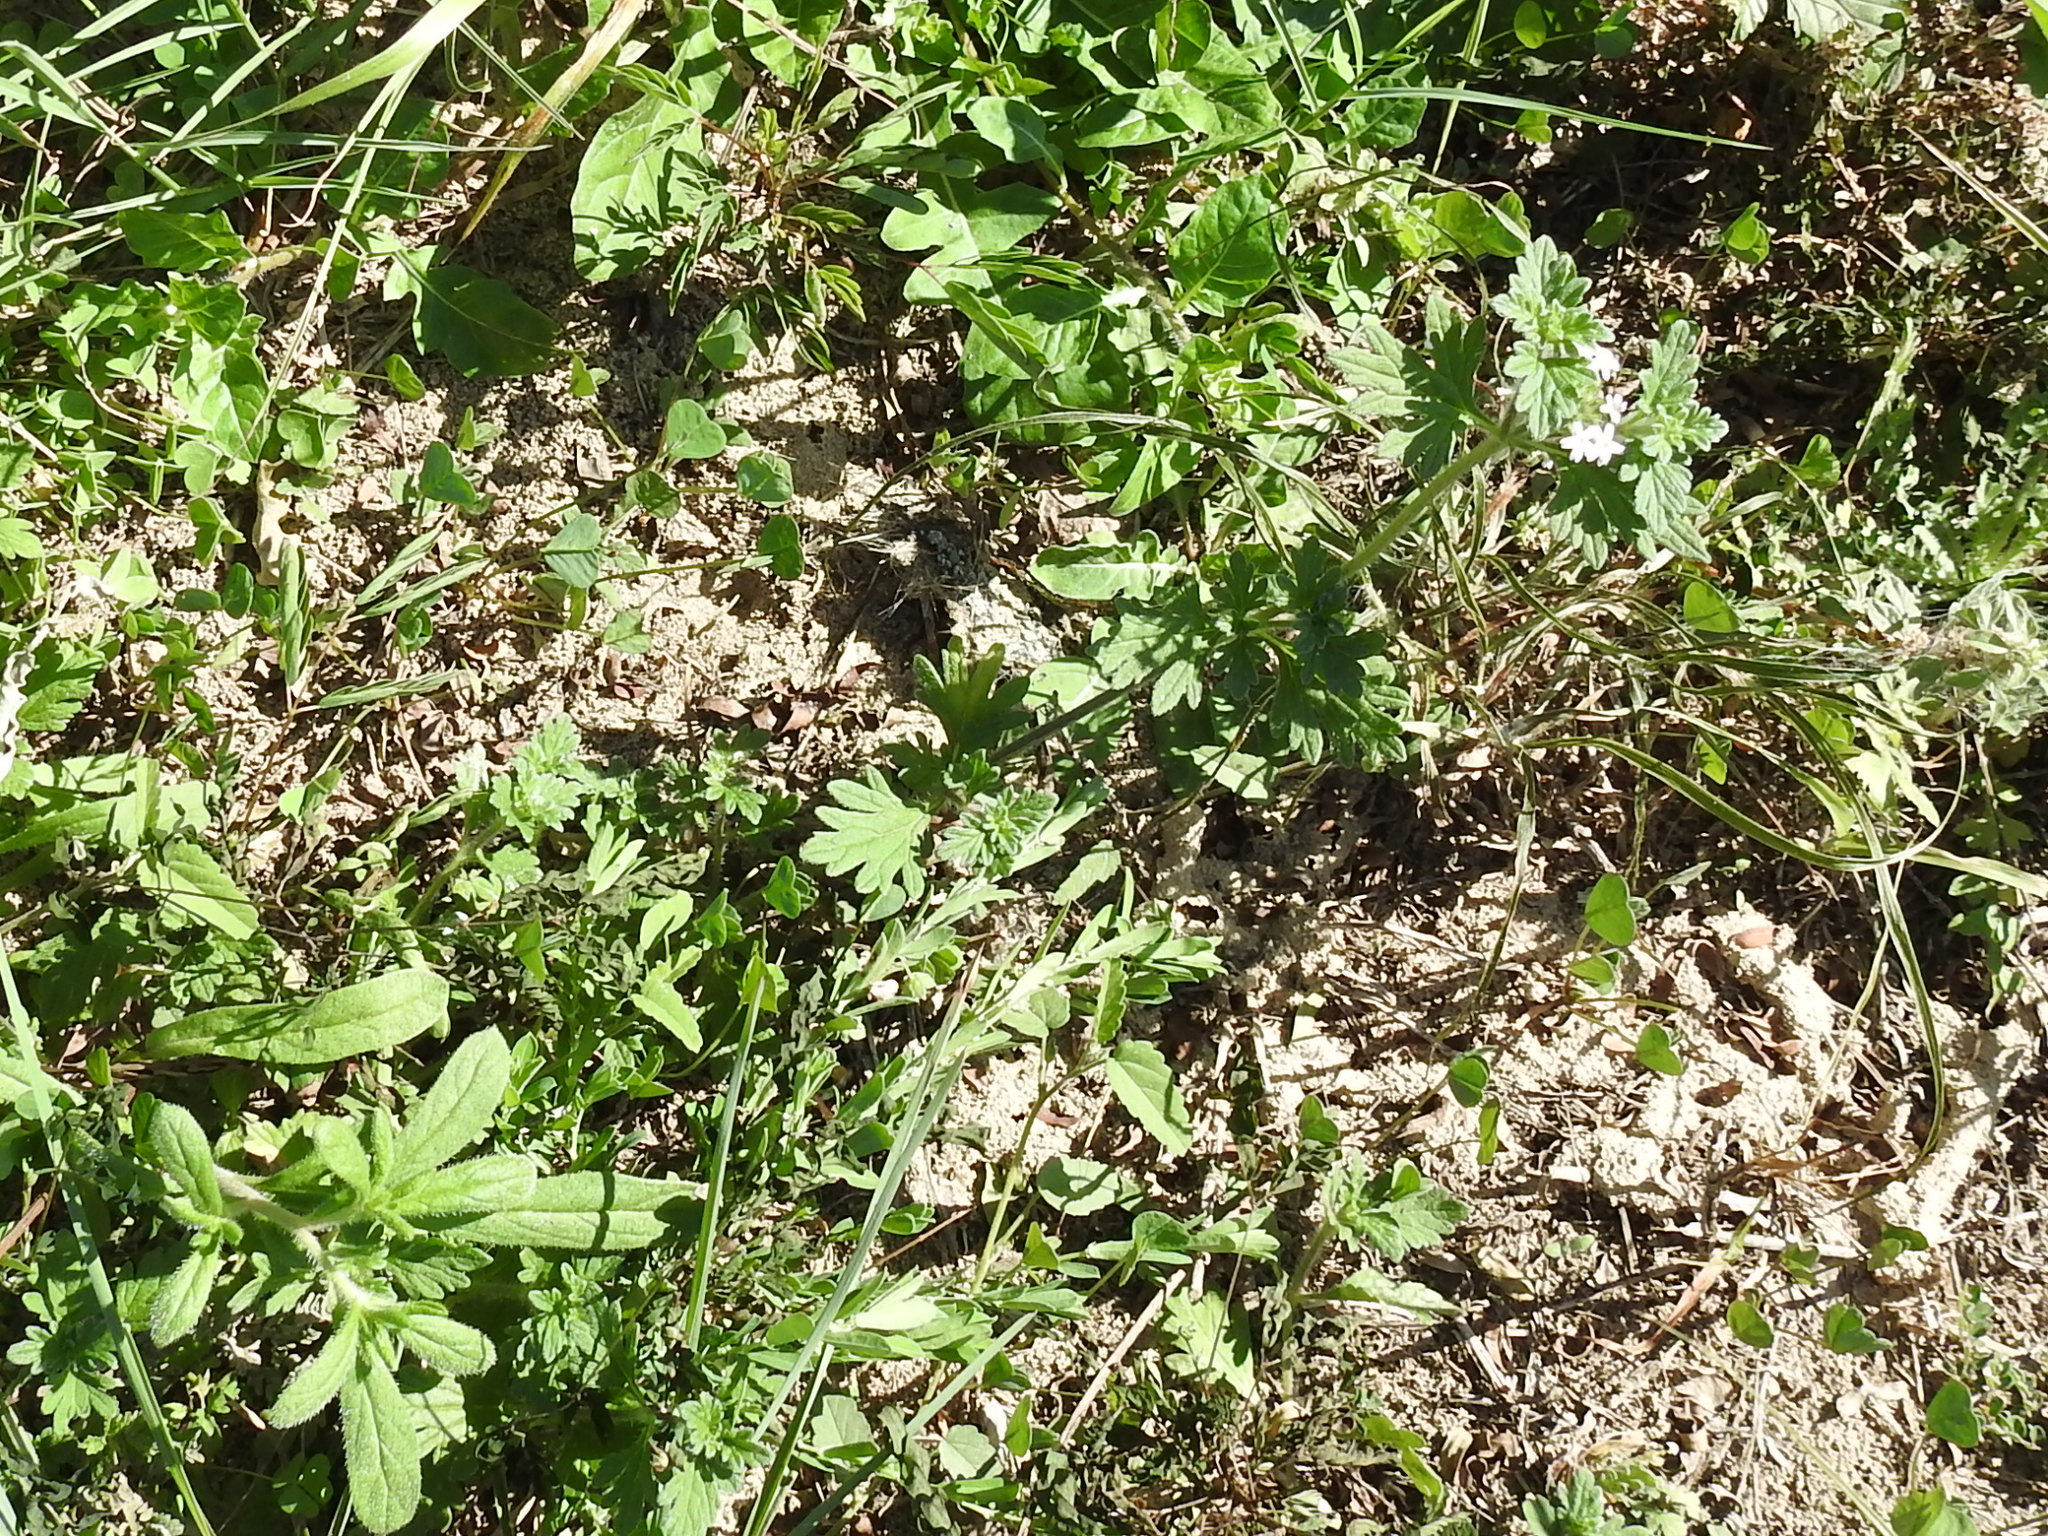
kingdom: Plantae
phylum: Tracheophyta
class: Magnoliopsida
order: Lamiales
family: Verbenaceae
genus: Verbena
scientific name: Verbena quadrangulata
